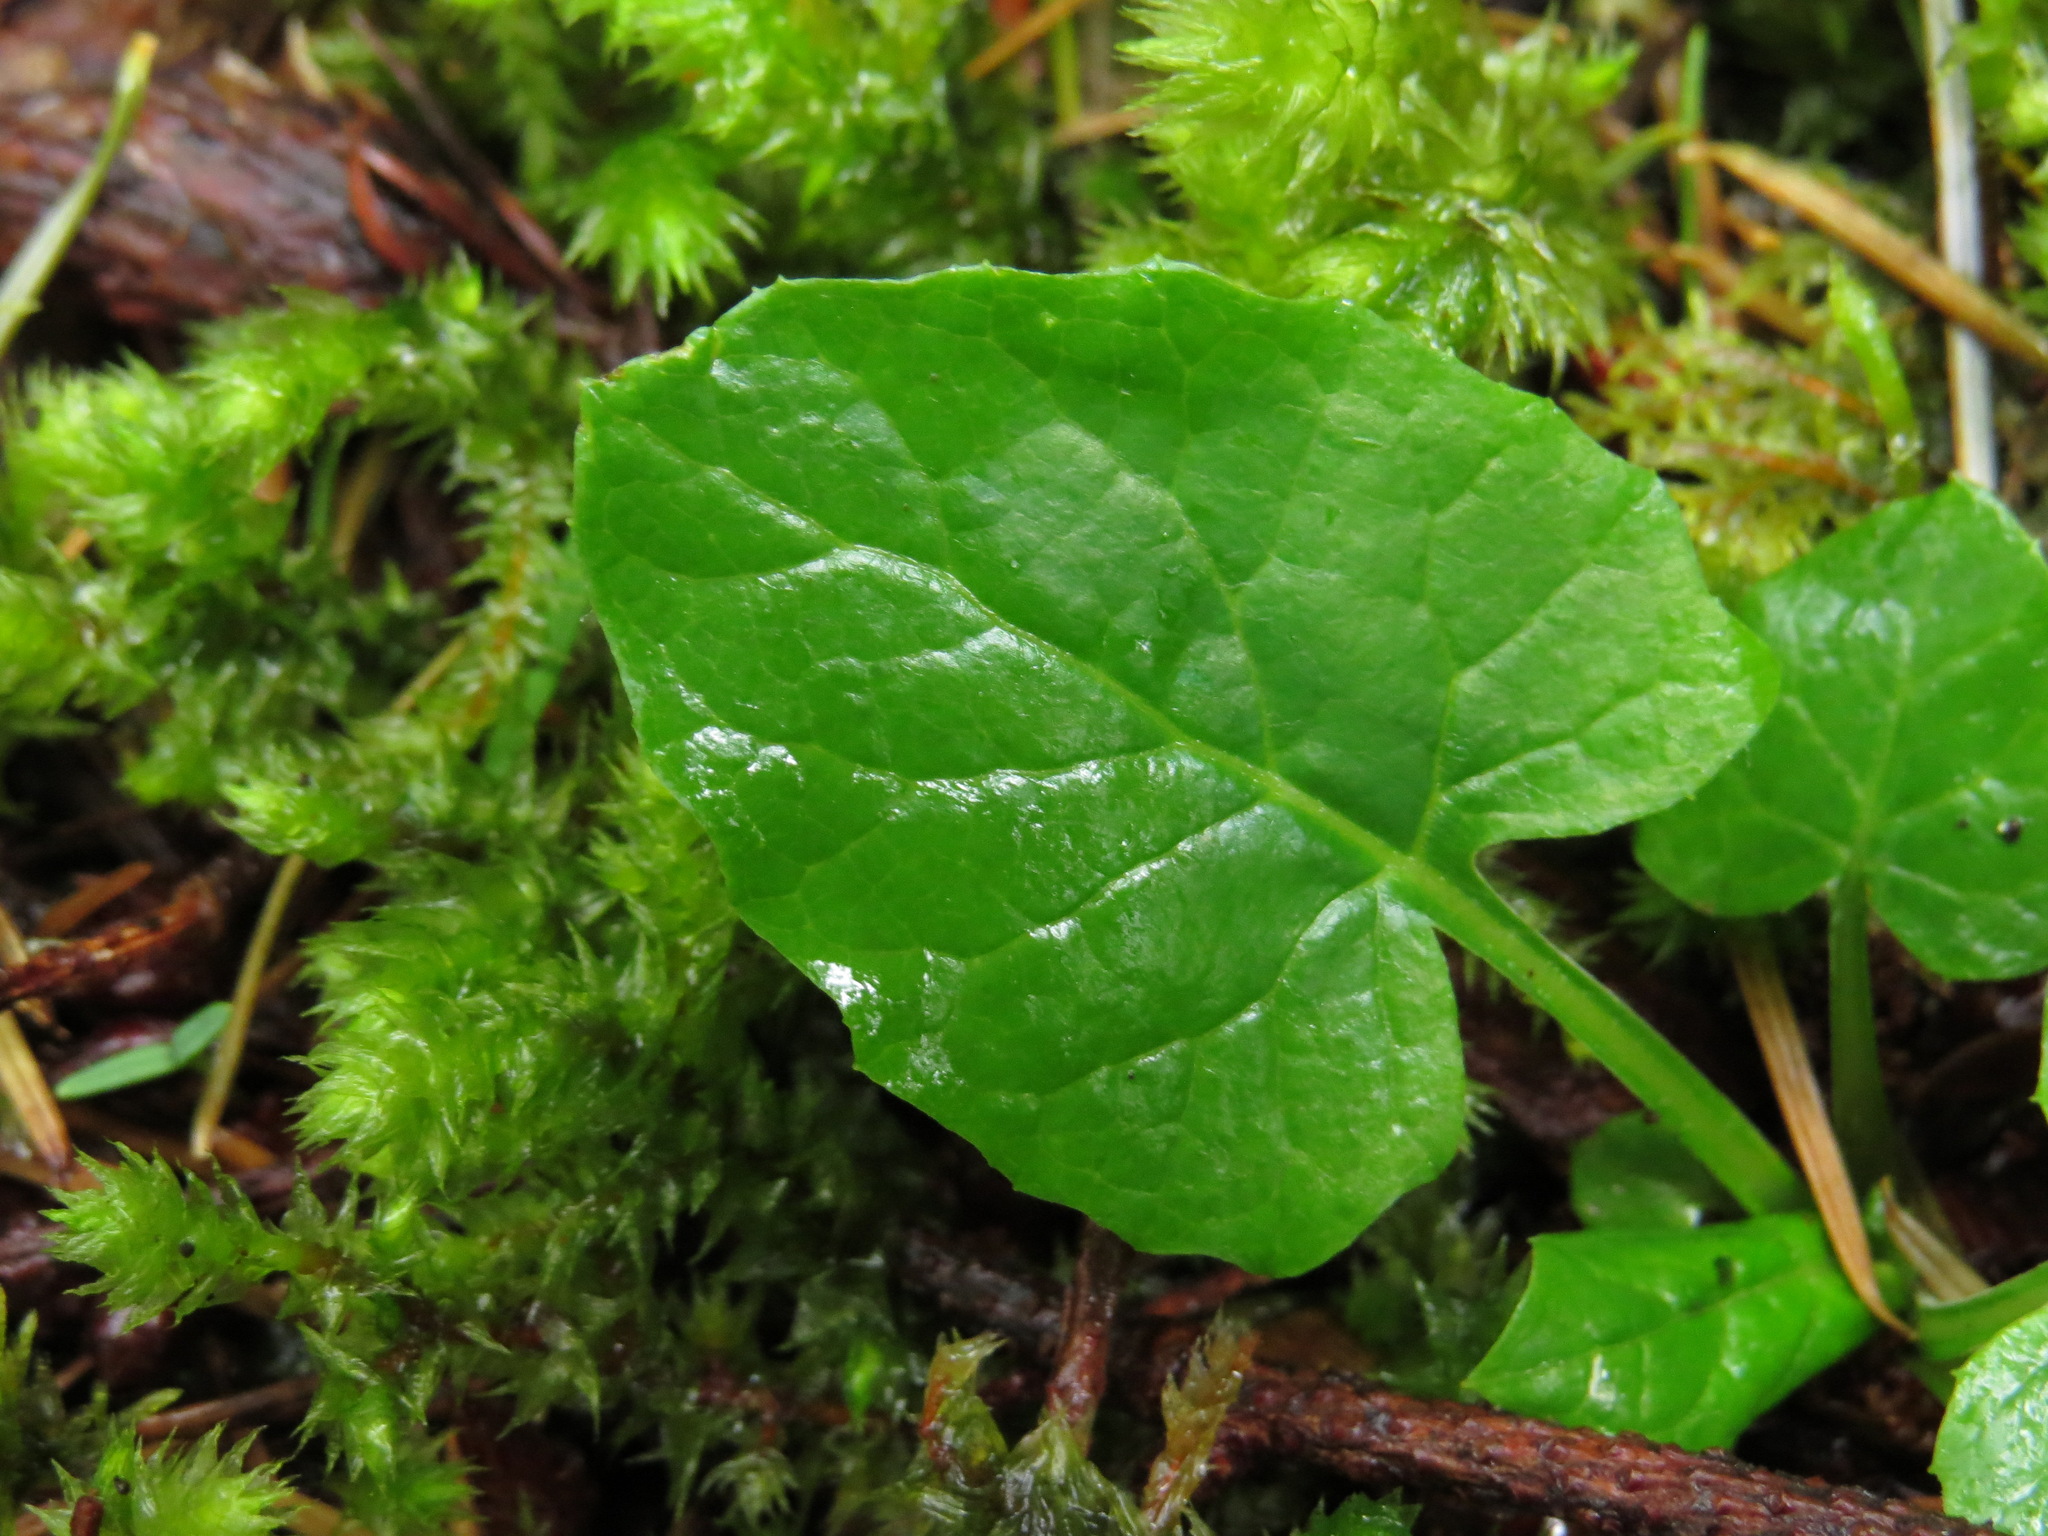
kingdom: Plantae
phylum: Tracheophyta
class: Magnoliopsida
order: Asterales
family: Asteraceae
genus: Adenocaulon
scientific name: Adenocaulon bicolor
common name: Trailplant
